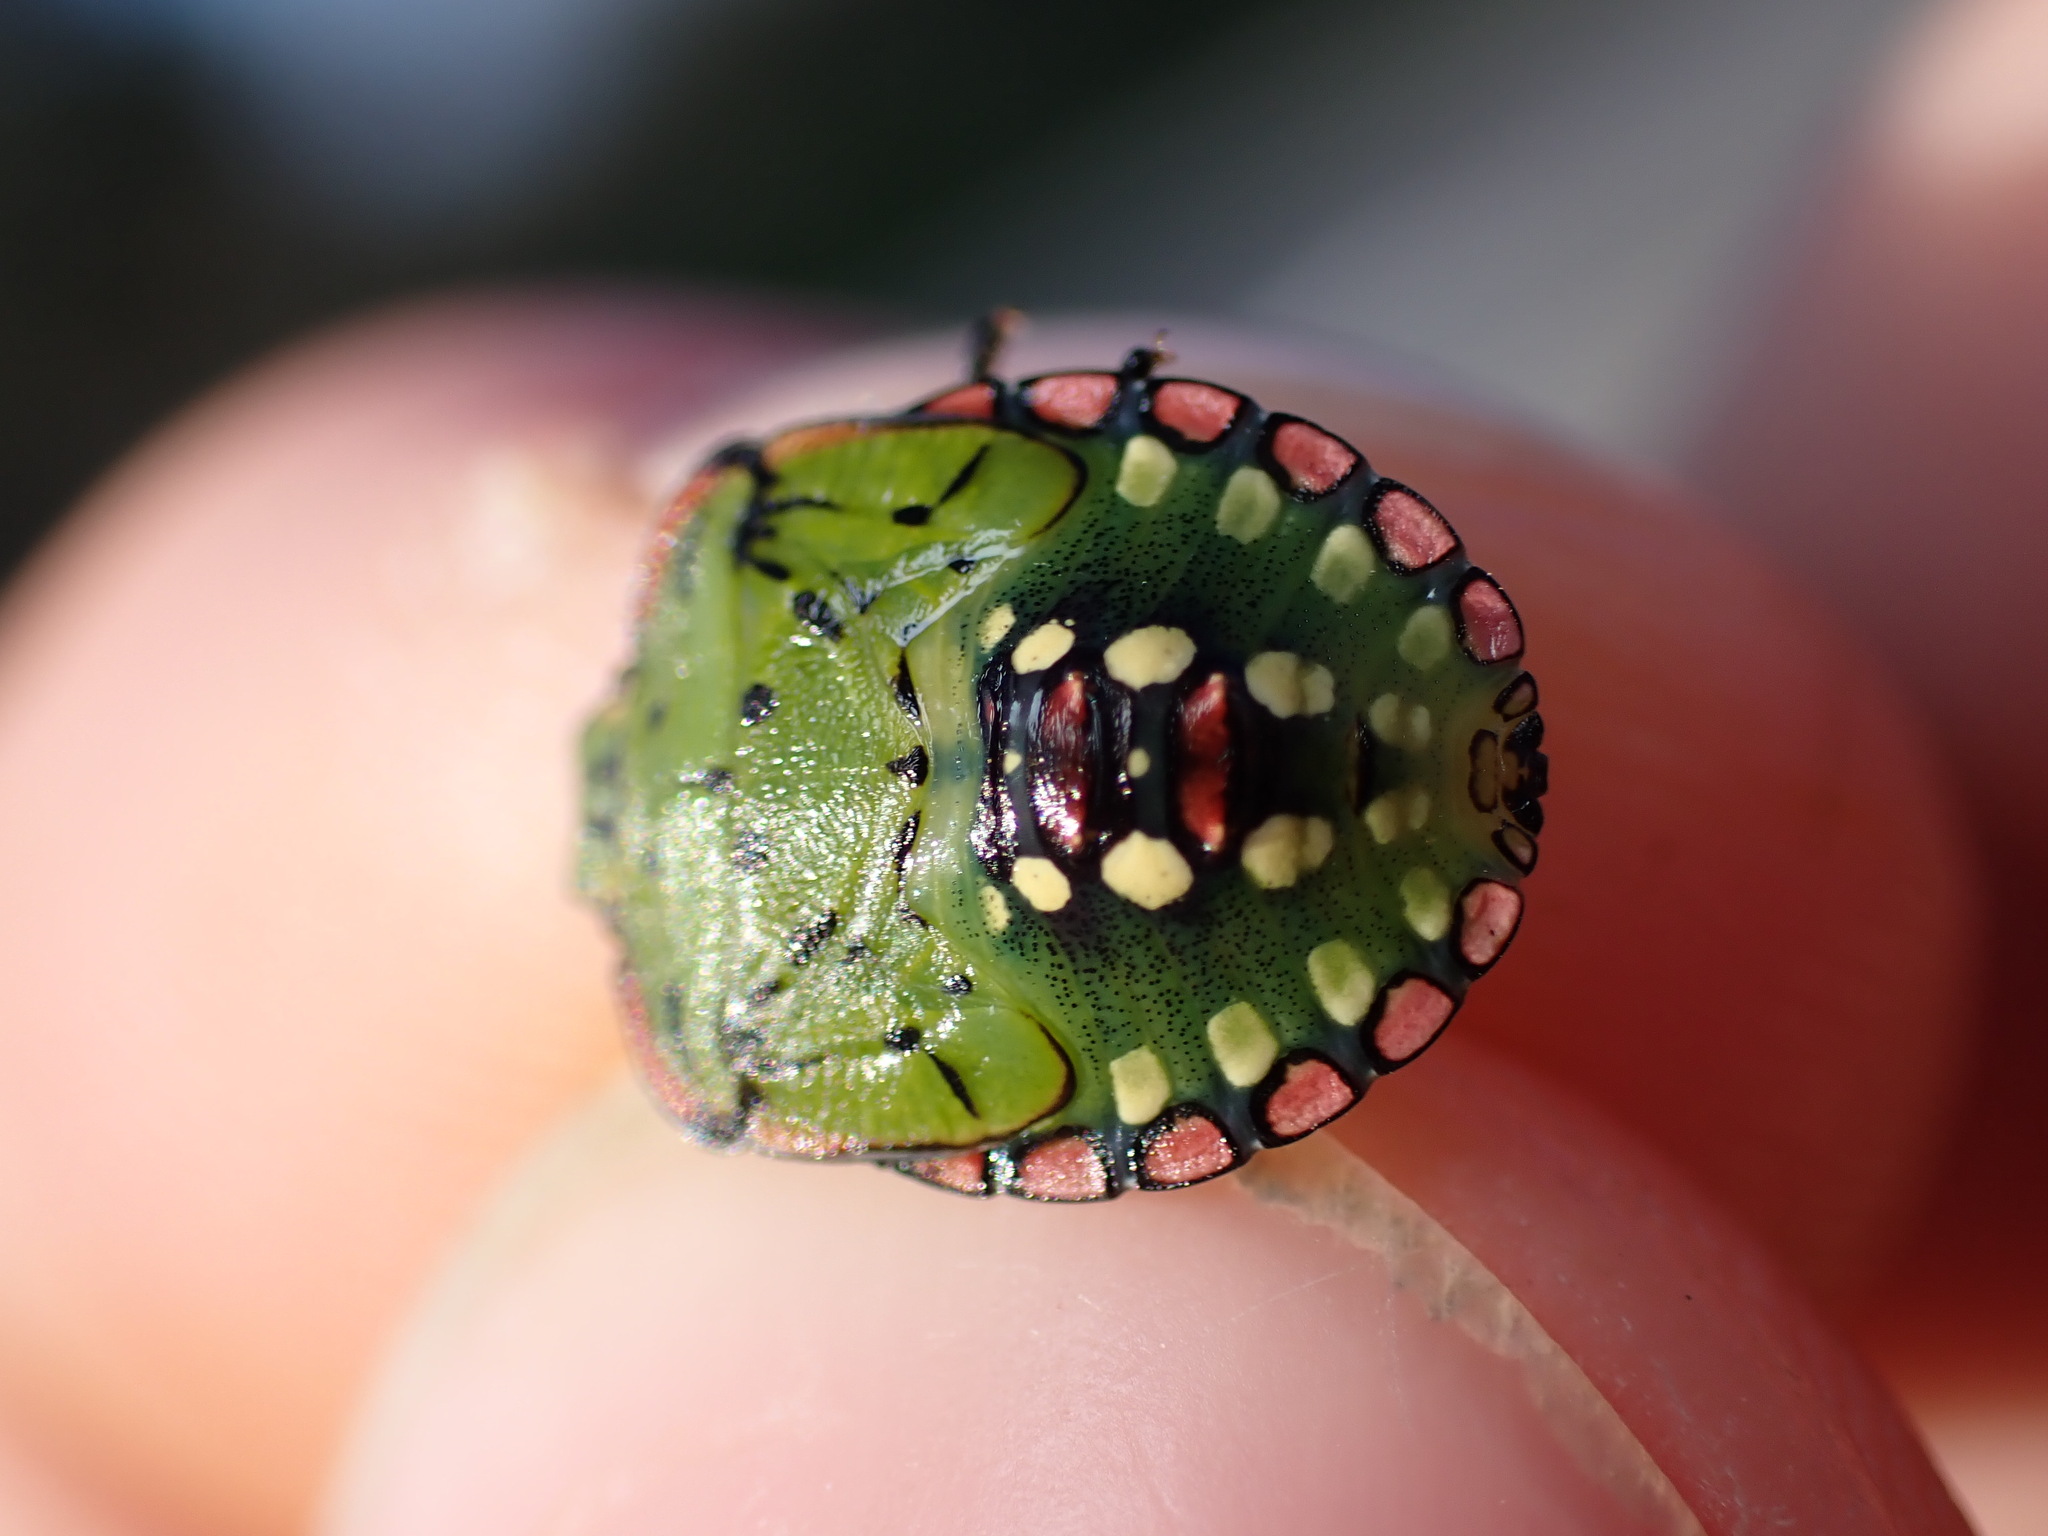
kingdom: Animalia
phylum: Arthropoda
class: Insecta
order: Hemiptera
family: Pentatomidae
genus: Nezara
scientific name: Nezara viridula
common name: Southern green stink bug
